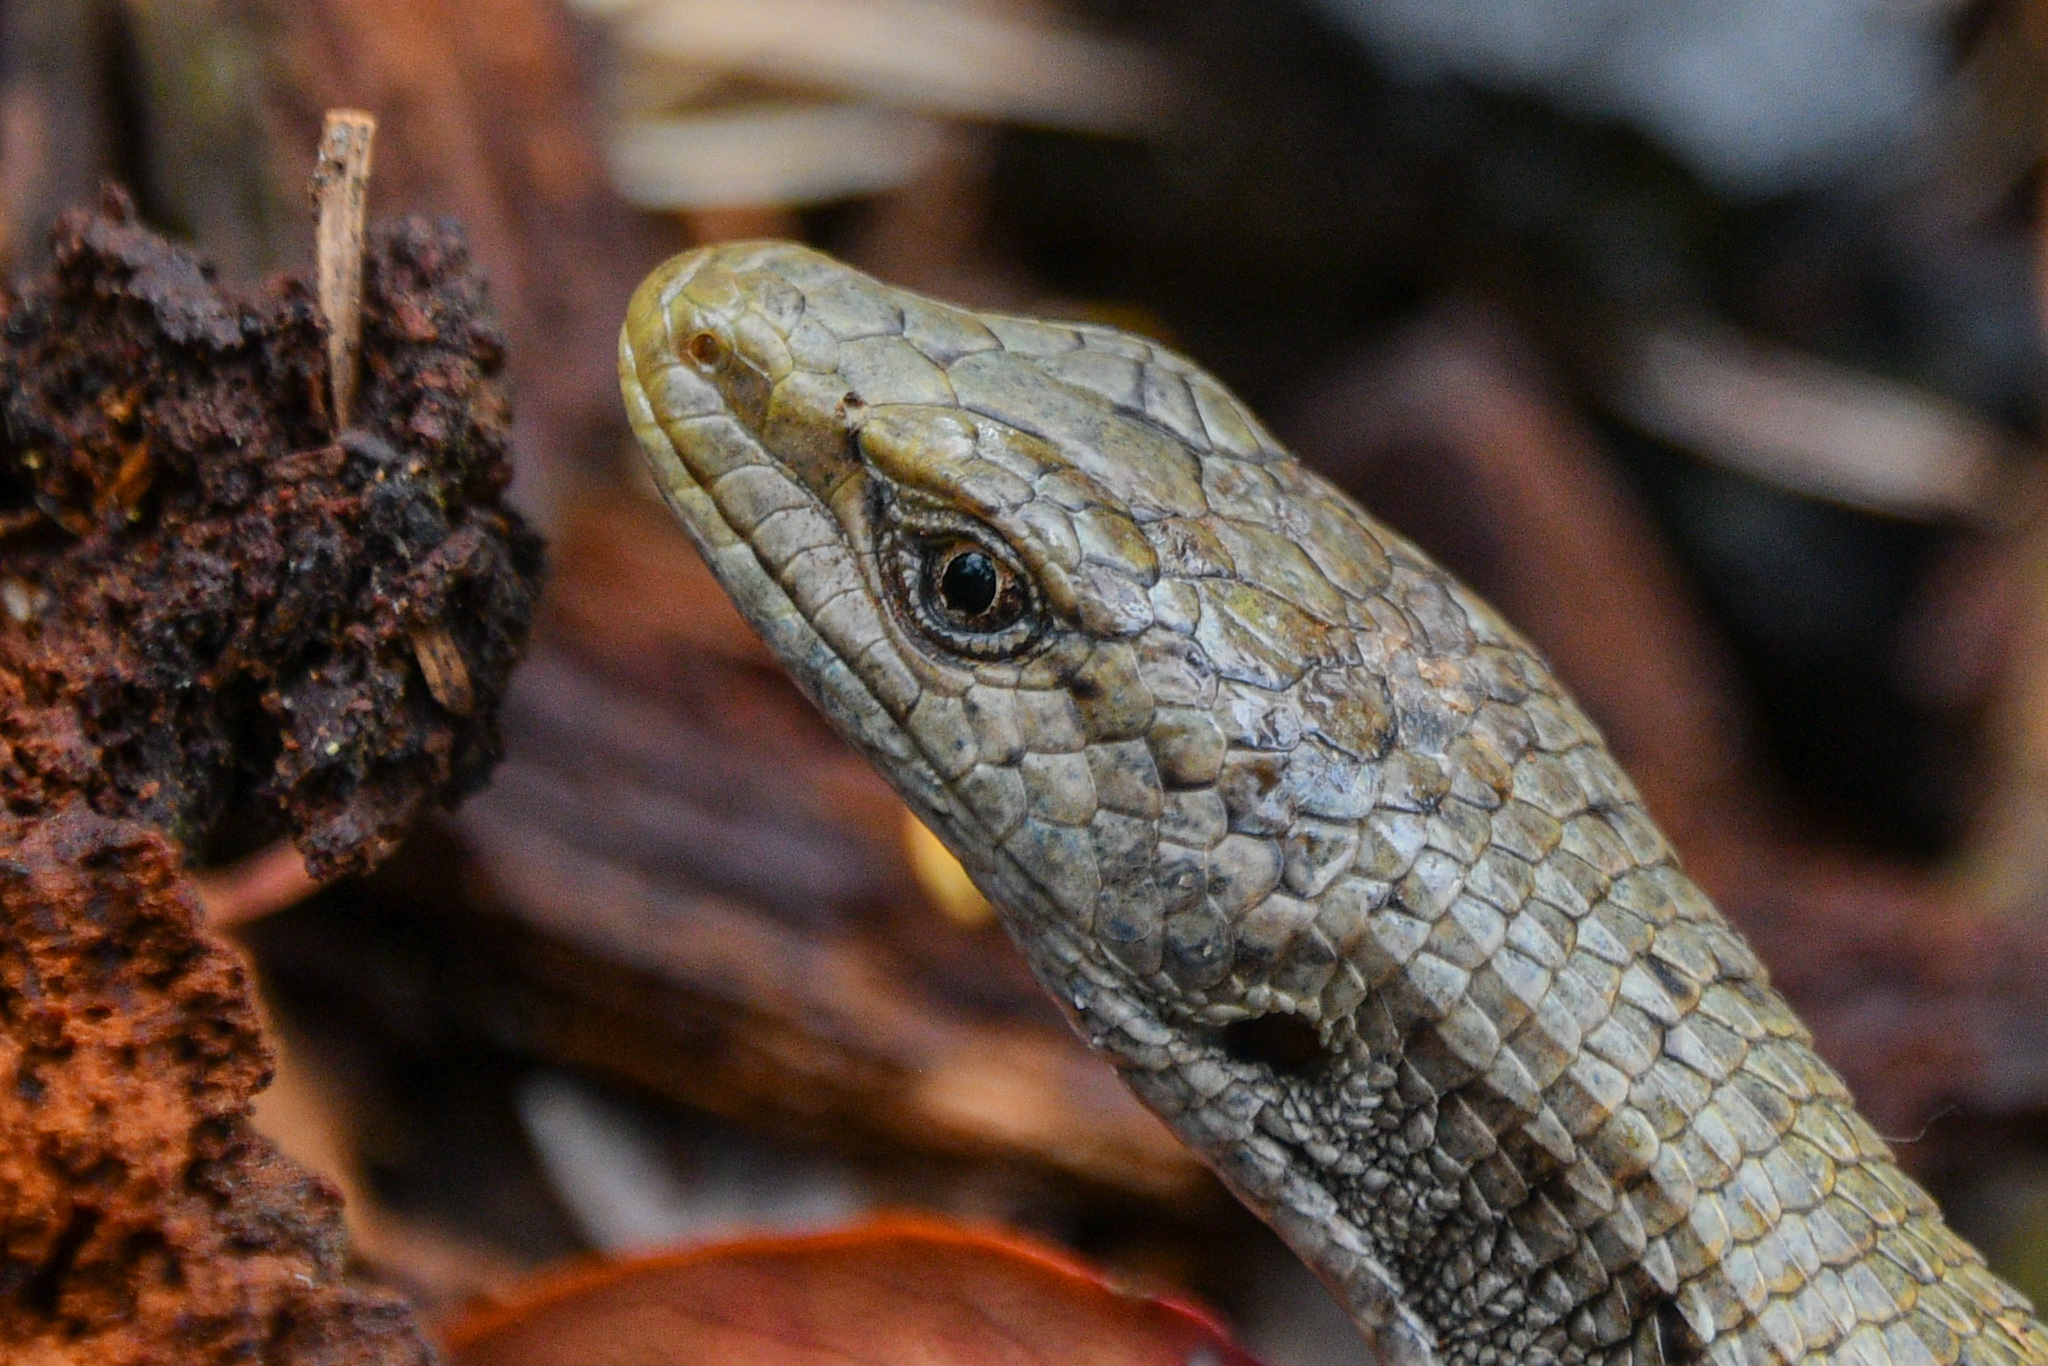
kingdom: Animalia
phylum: Chordata
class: Squamata
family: Anguidae
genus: Elgaria
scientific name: Elgaria coerulea
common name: Northern alligator lizard
